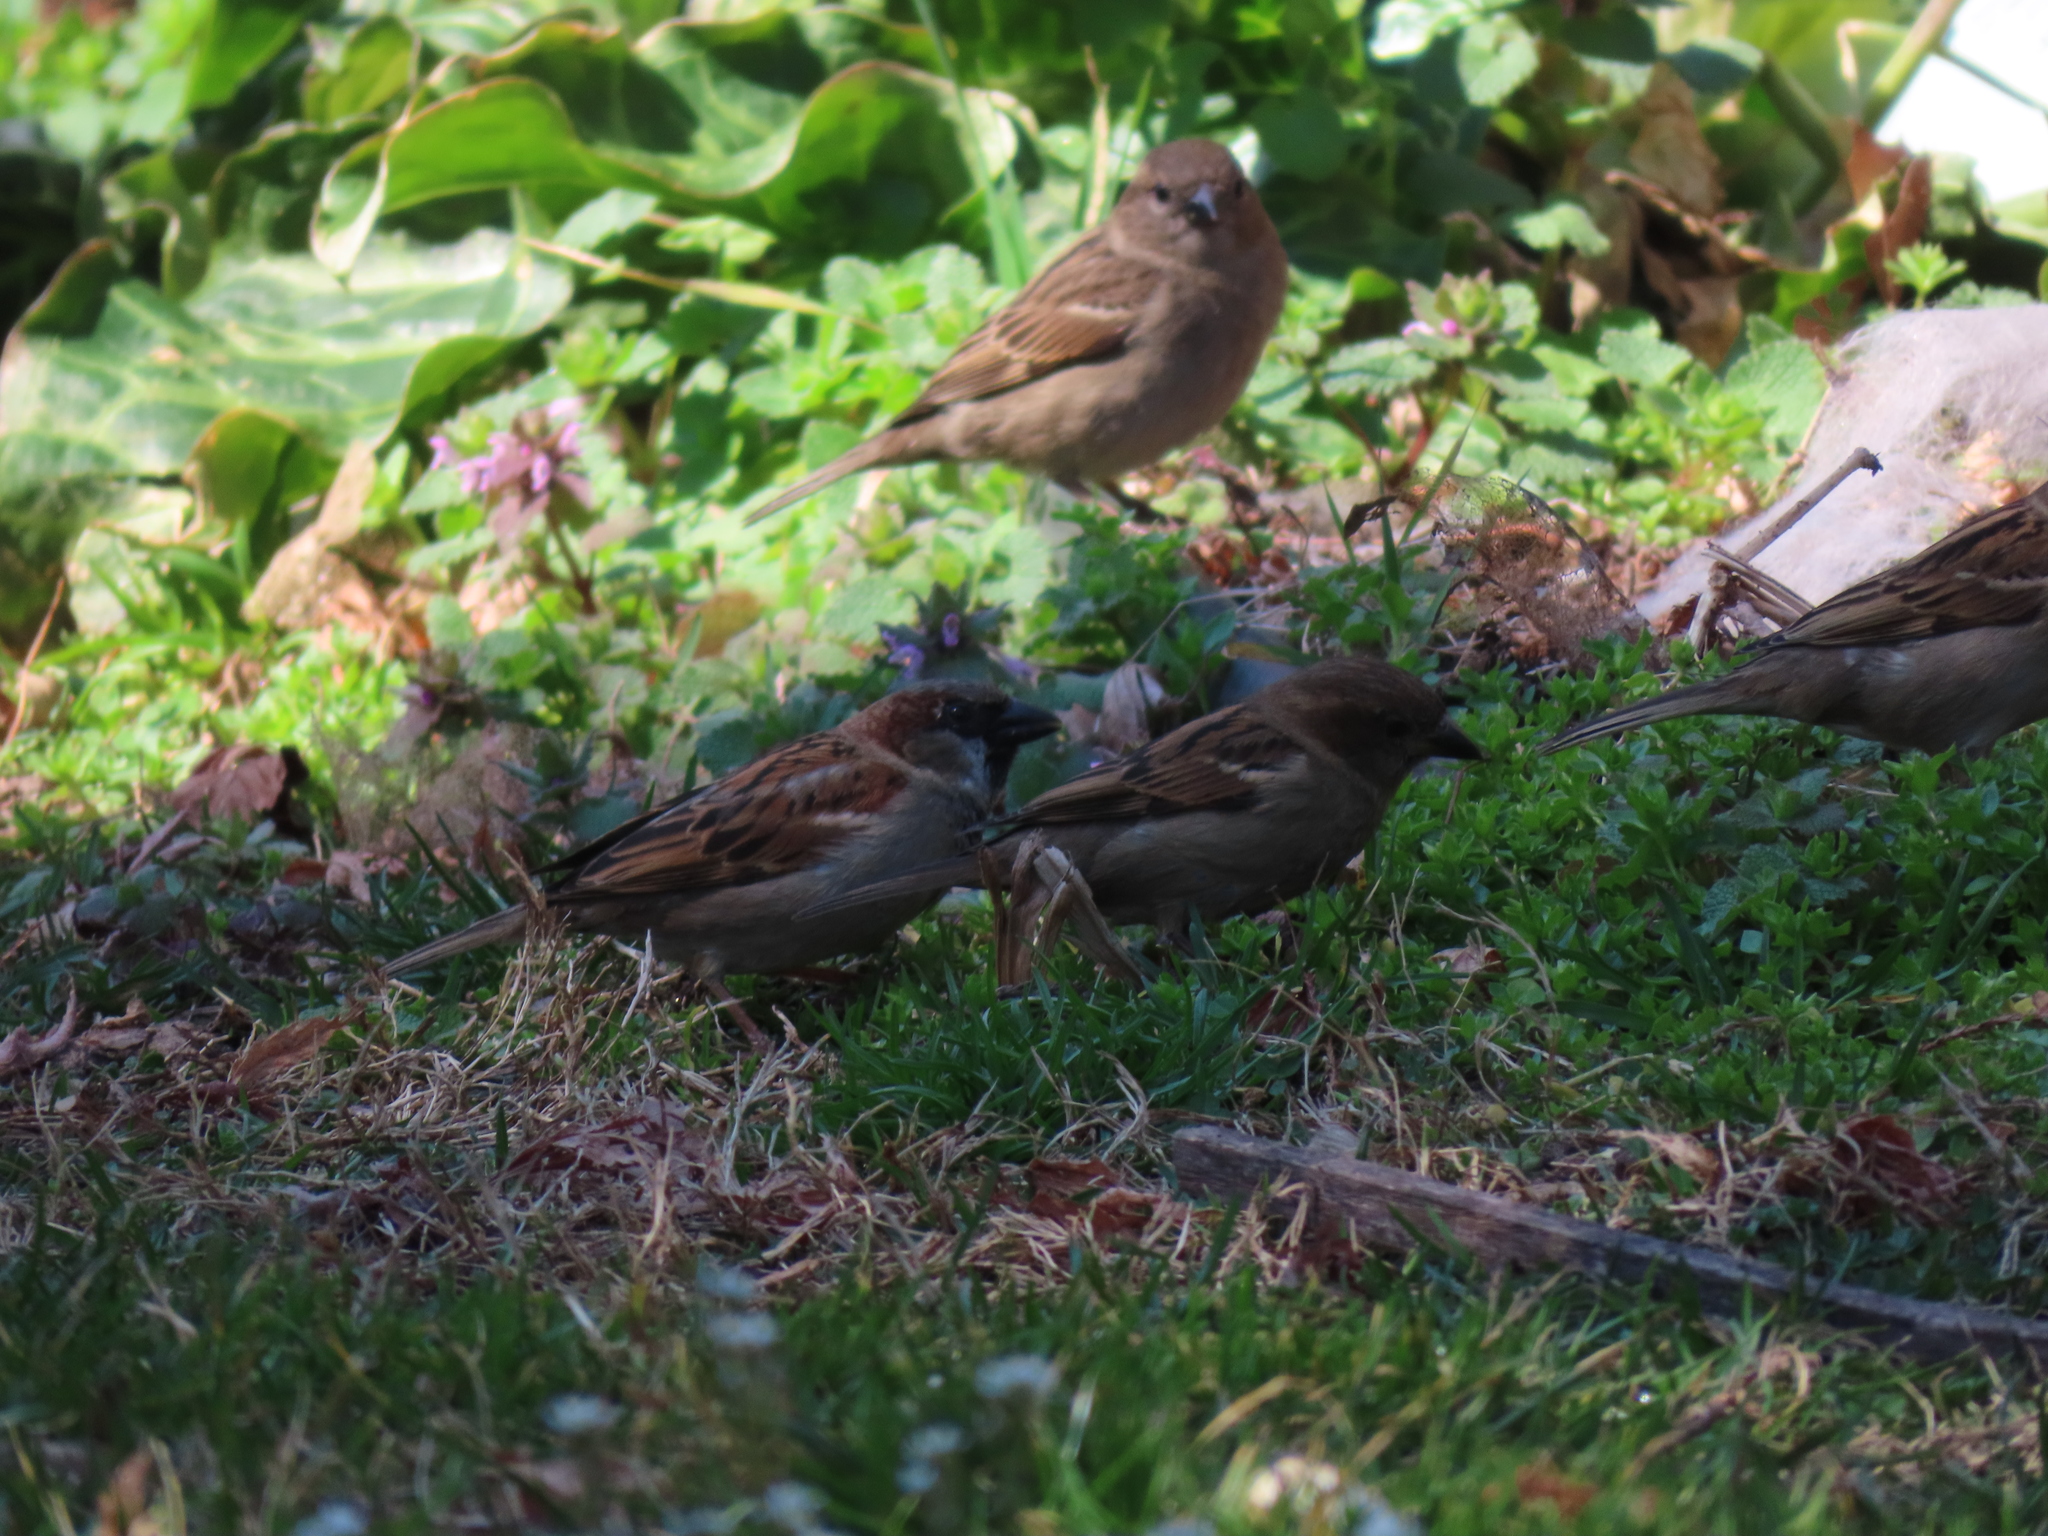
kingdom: Animalia
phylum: Chordata
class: Aves
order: Passeriformes
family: Passeridae
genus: Passer
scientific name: Passer domesticus
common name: House sparrow
